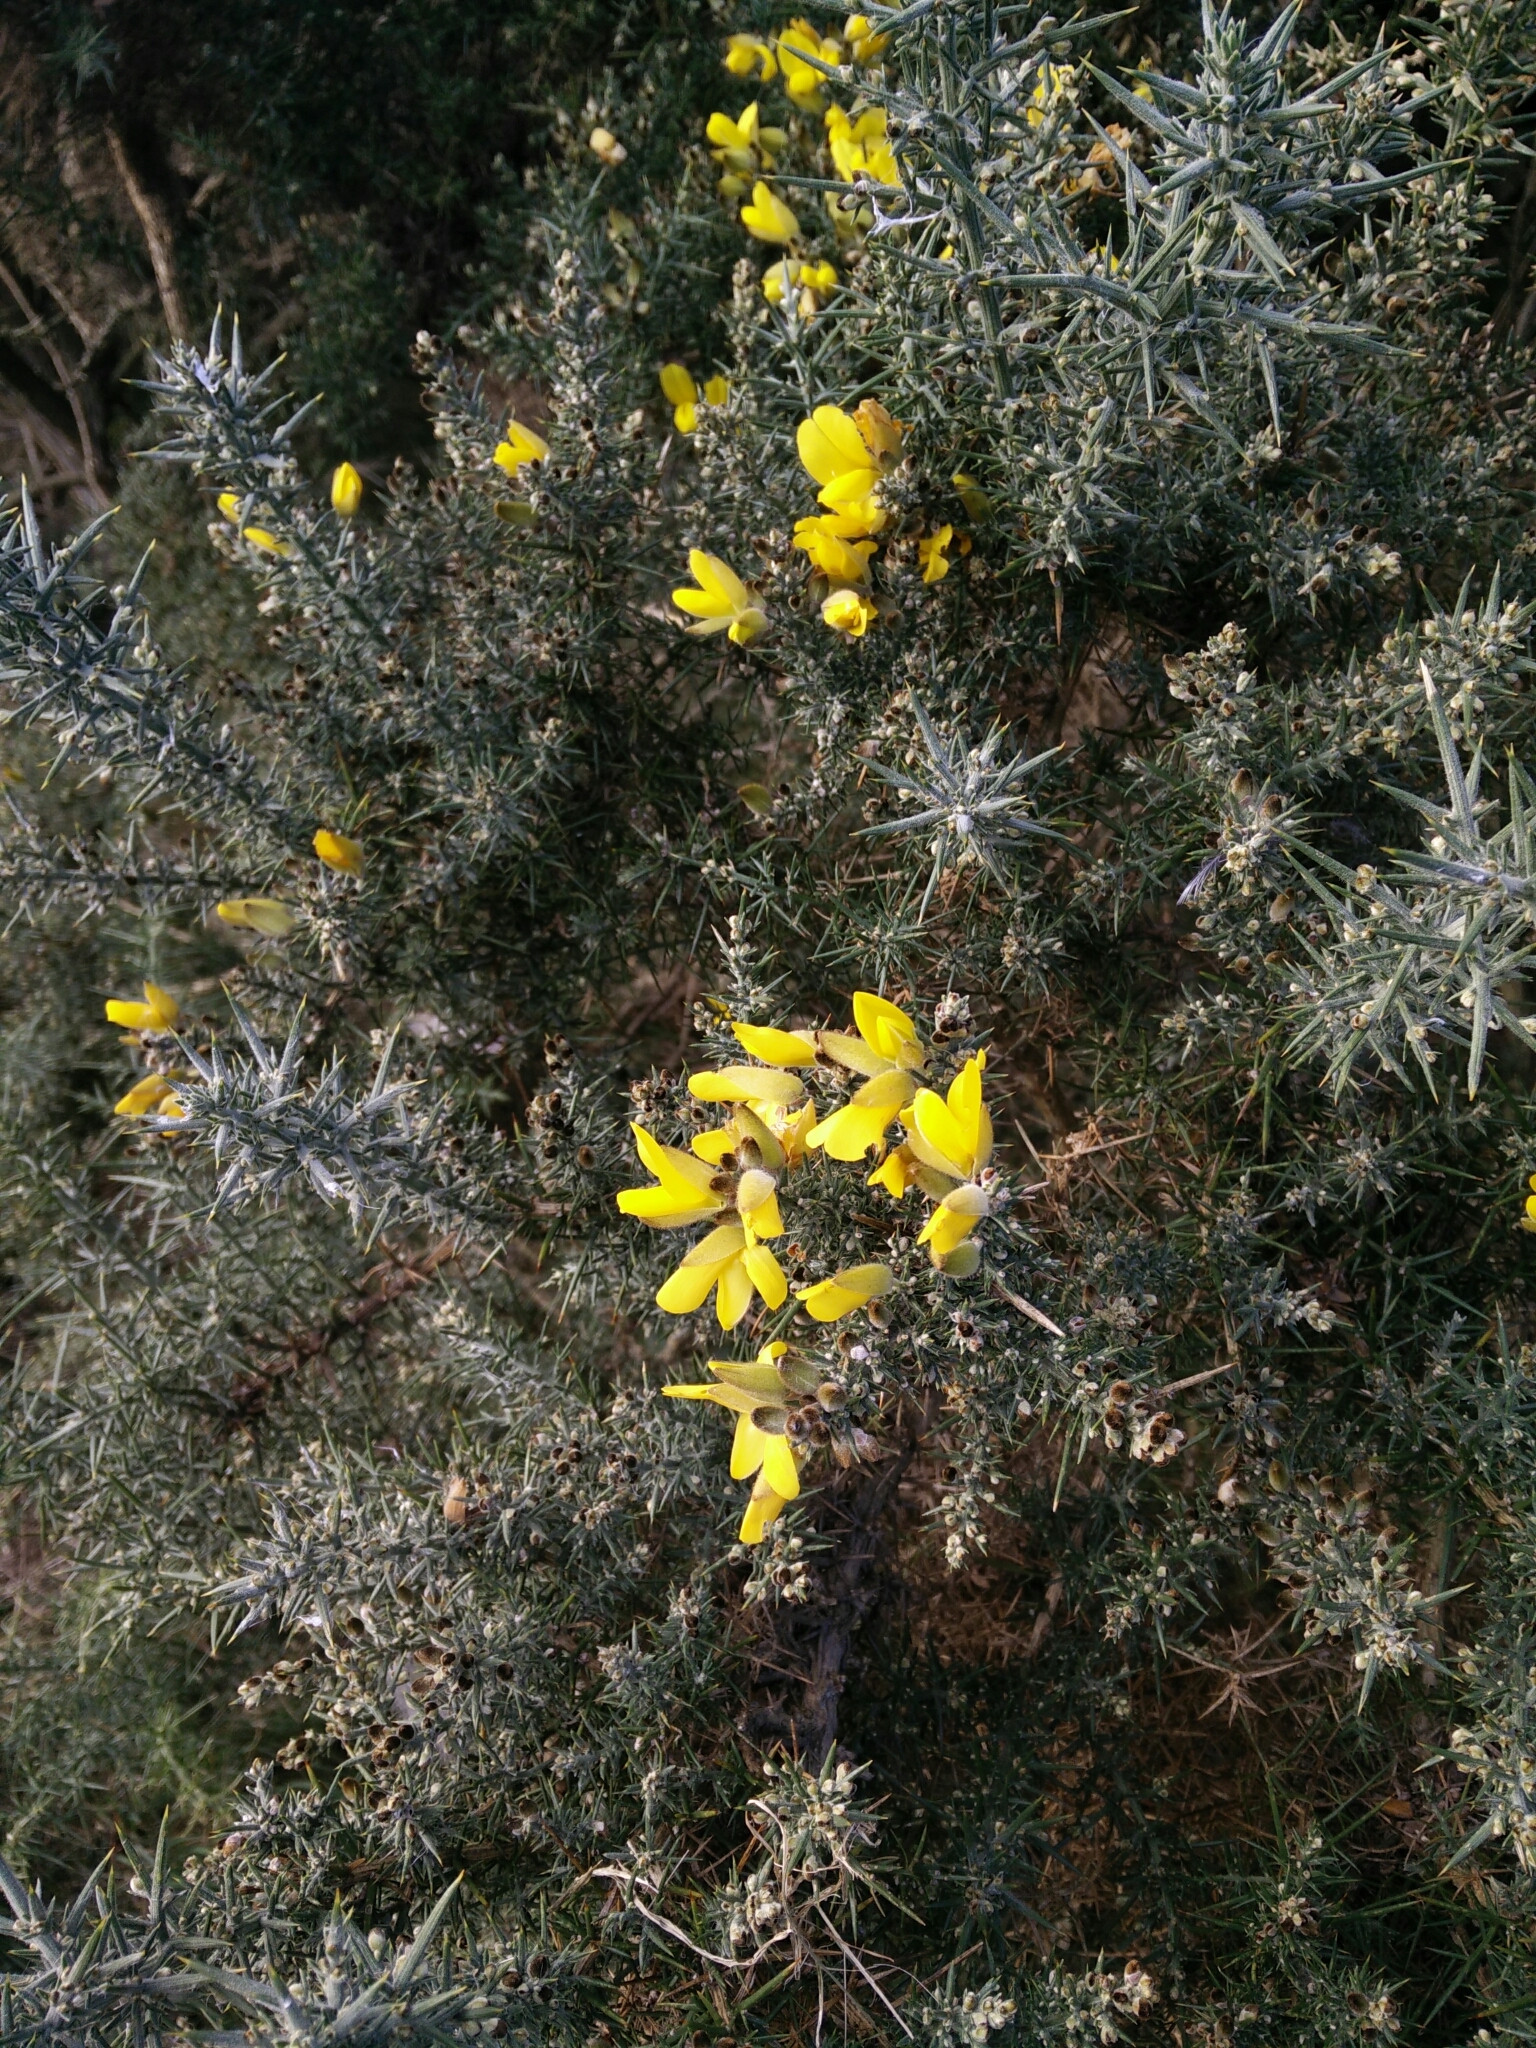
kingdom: Plantae
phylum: Tracheophyta
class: Magnoliopsida
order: Fabales
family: Fabaceae
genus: Ulex
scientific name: Ulex europaeus
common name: Common gorse
